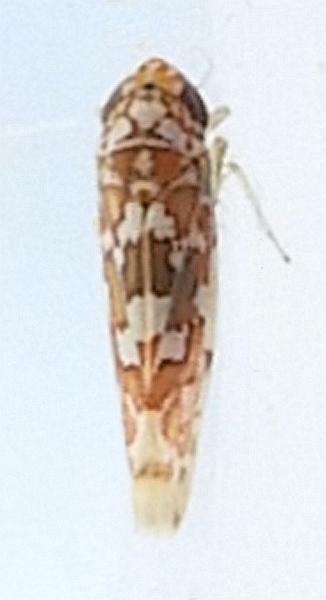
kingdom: Animalia
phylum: Arthropoda
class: Insecta
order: Hemiptera
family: Cicadellidae
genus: Tautoneura
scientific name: Tautoneura polymitusa
